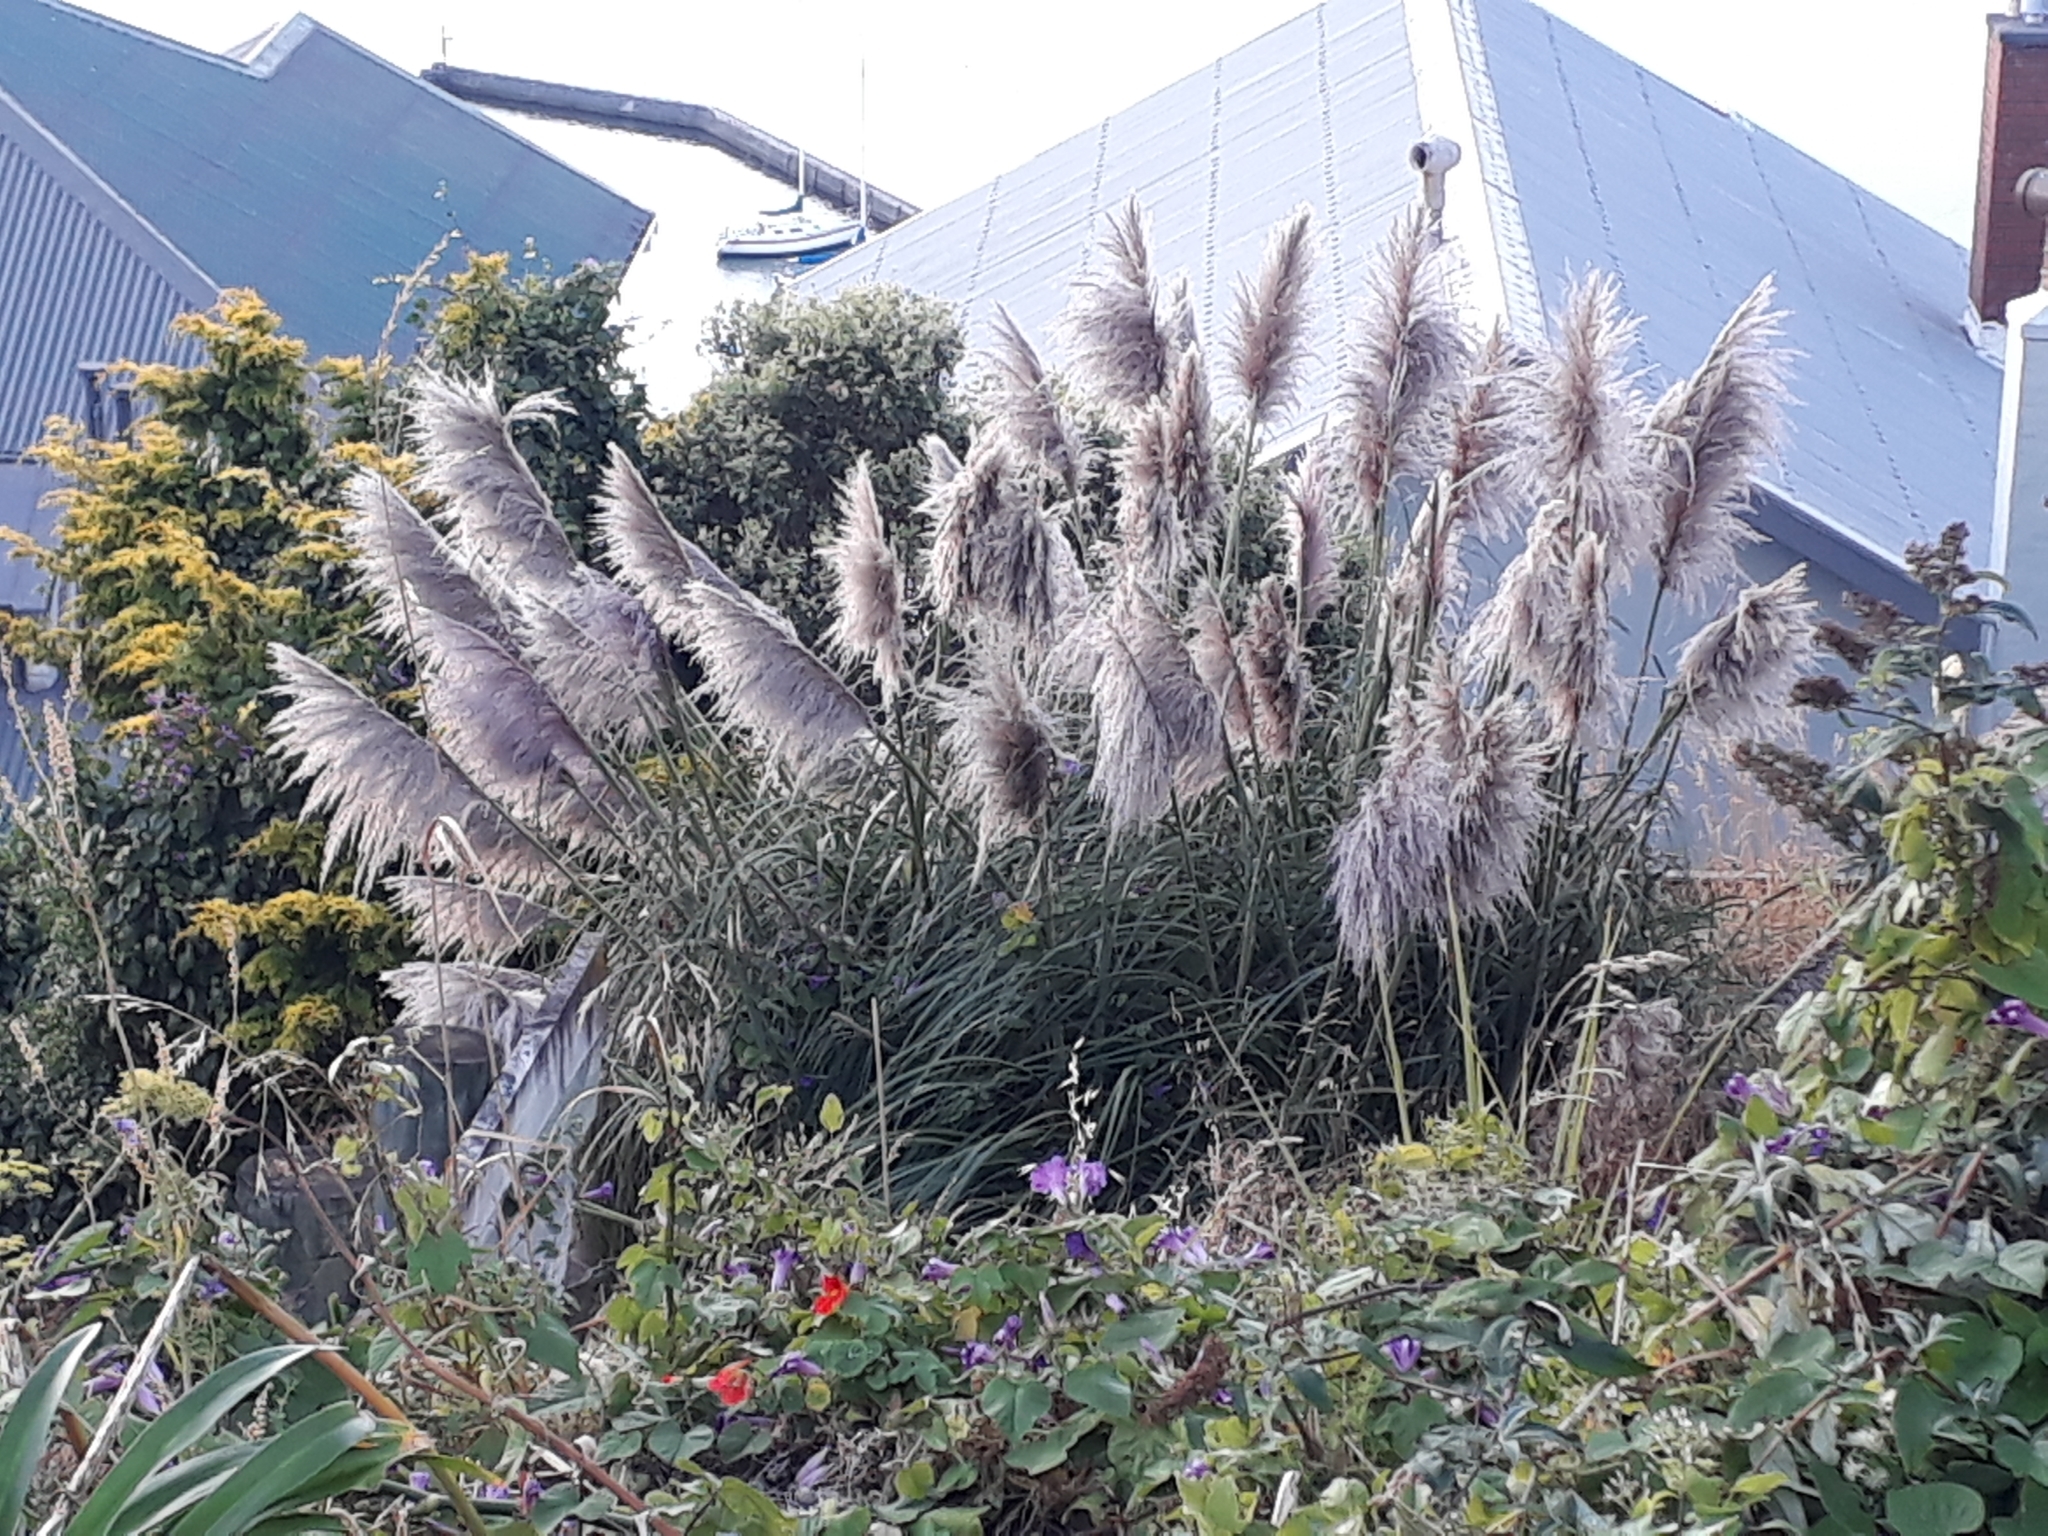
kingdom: Plantae
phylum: Tracheophyta
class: Liliopsida
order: Poales
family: Poaceae
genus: Cortaderia
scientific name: Cortaderia jubata
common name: Purple pampas grass
